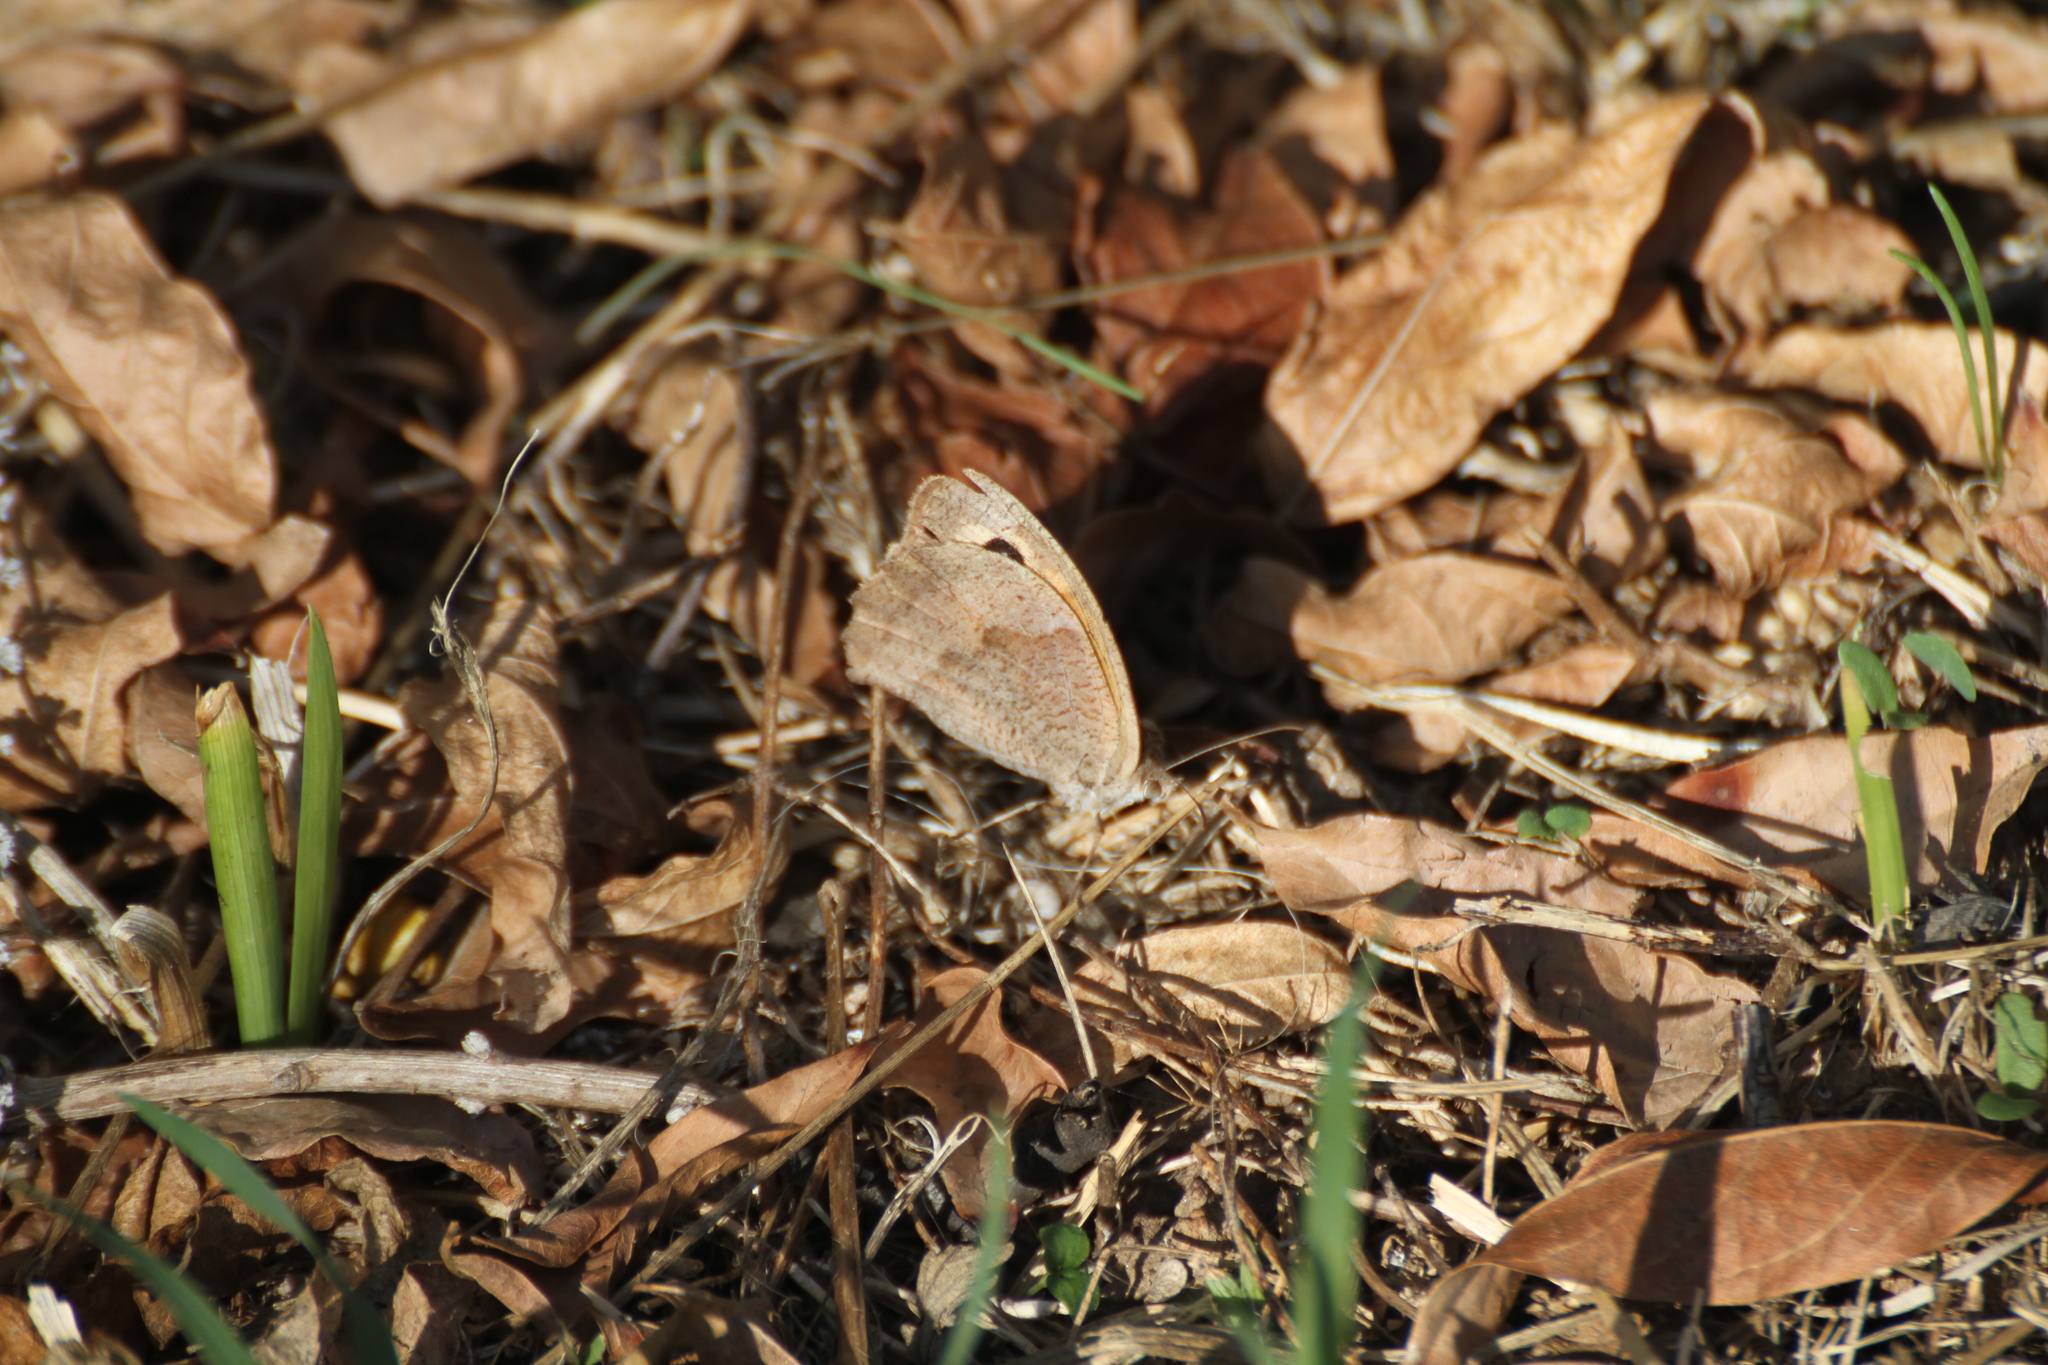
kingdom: Animalia
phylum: Arthropoda
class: Insecta
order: Lepidoptera
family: Nymphalidae
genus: Maniola
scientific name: Maniola jurtina
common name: Meadow brown
